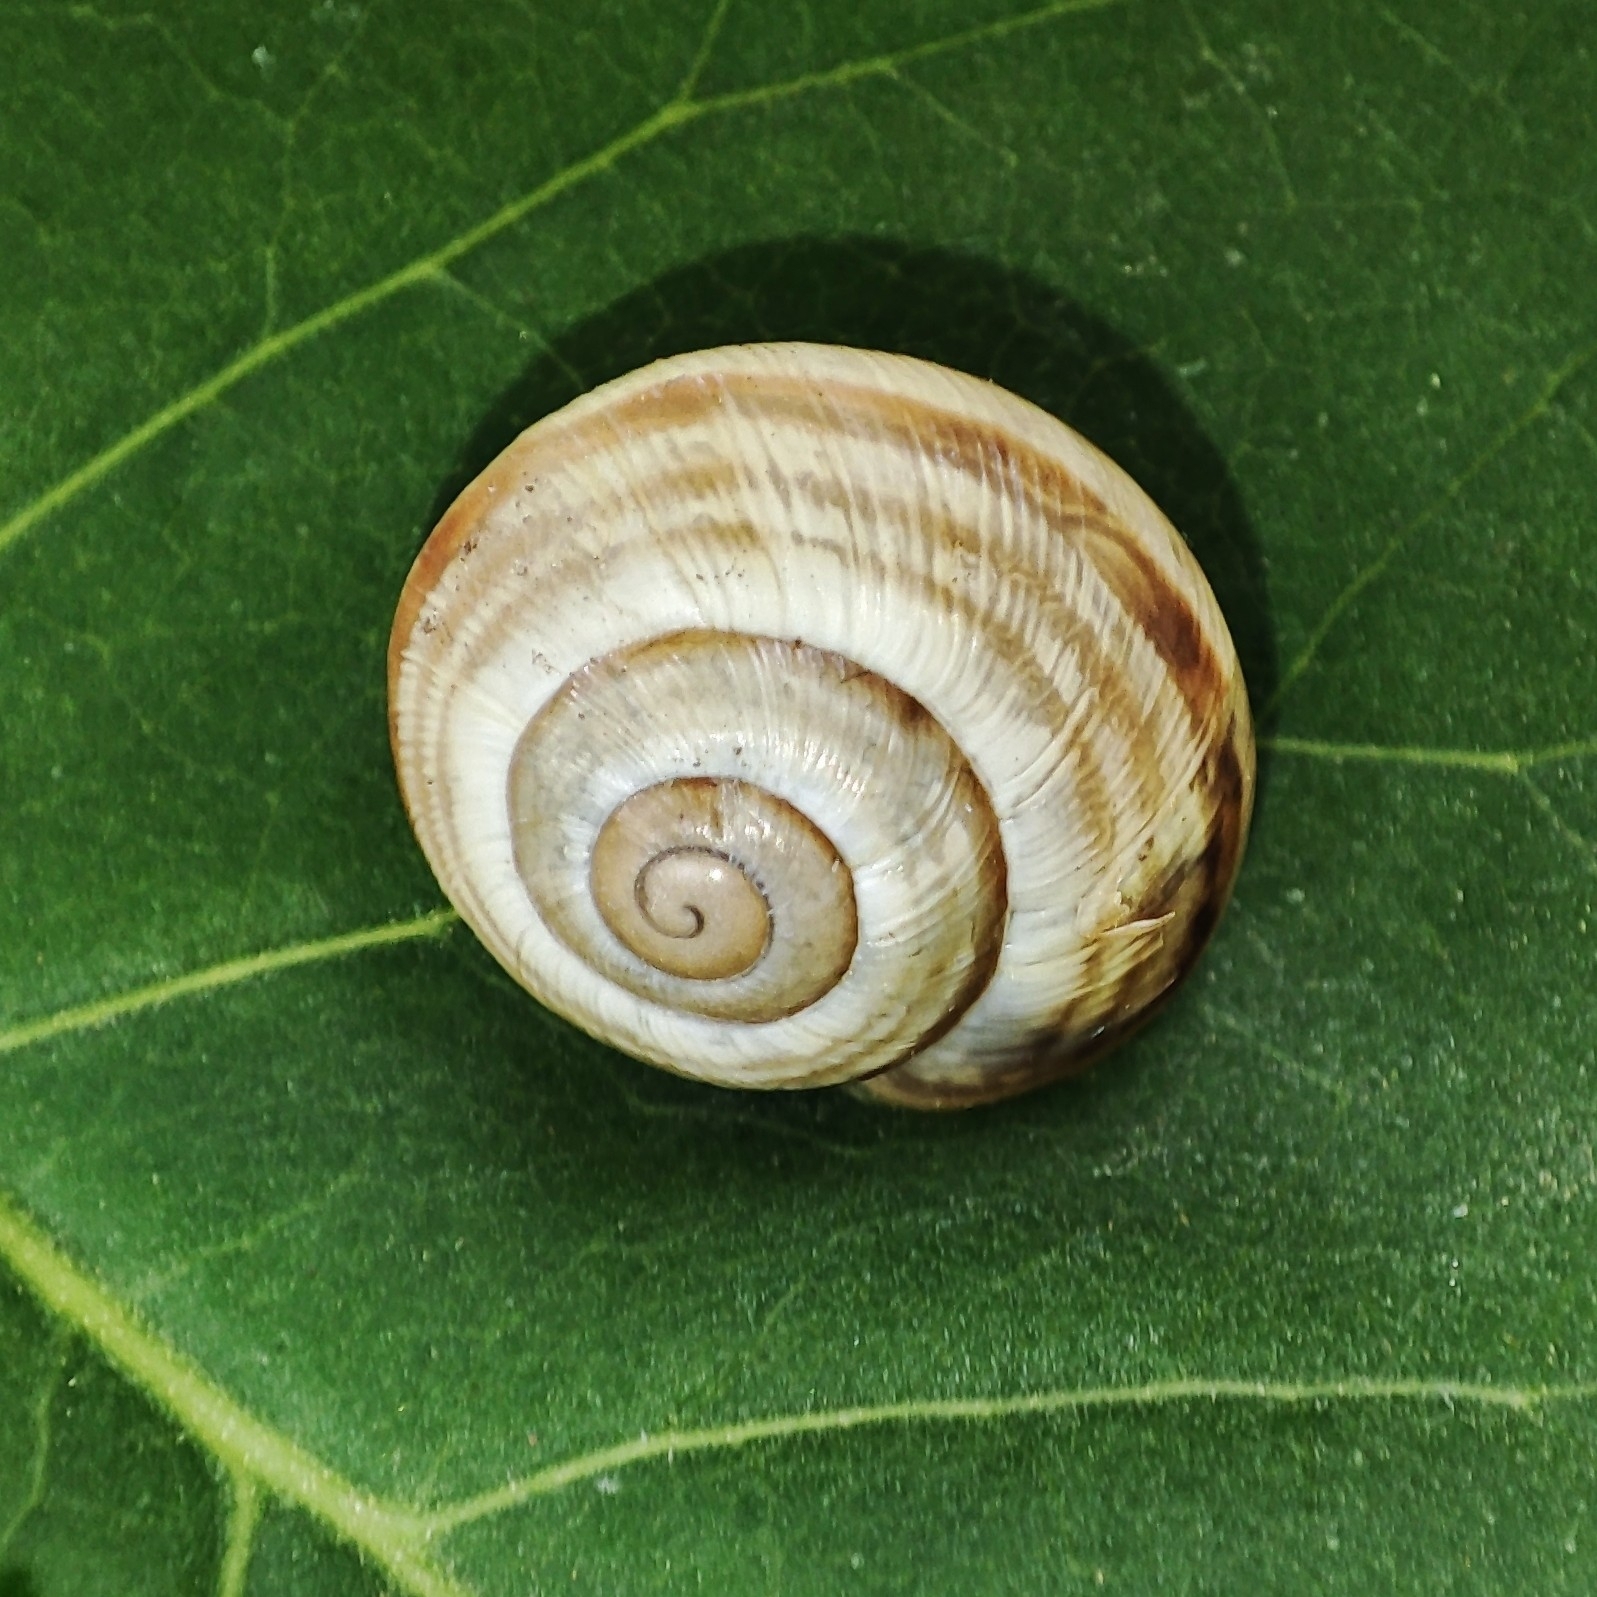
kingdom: Animalia
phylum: Mollusca
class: Gastropoda
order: Stylommatophora
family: Helicidae
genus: Caucasotachea
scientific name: Caucasotachea vindobonensis
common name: European helicid land snail
